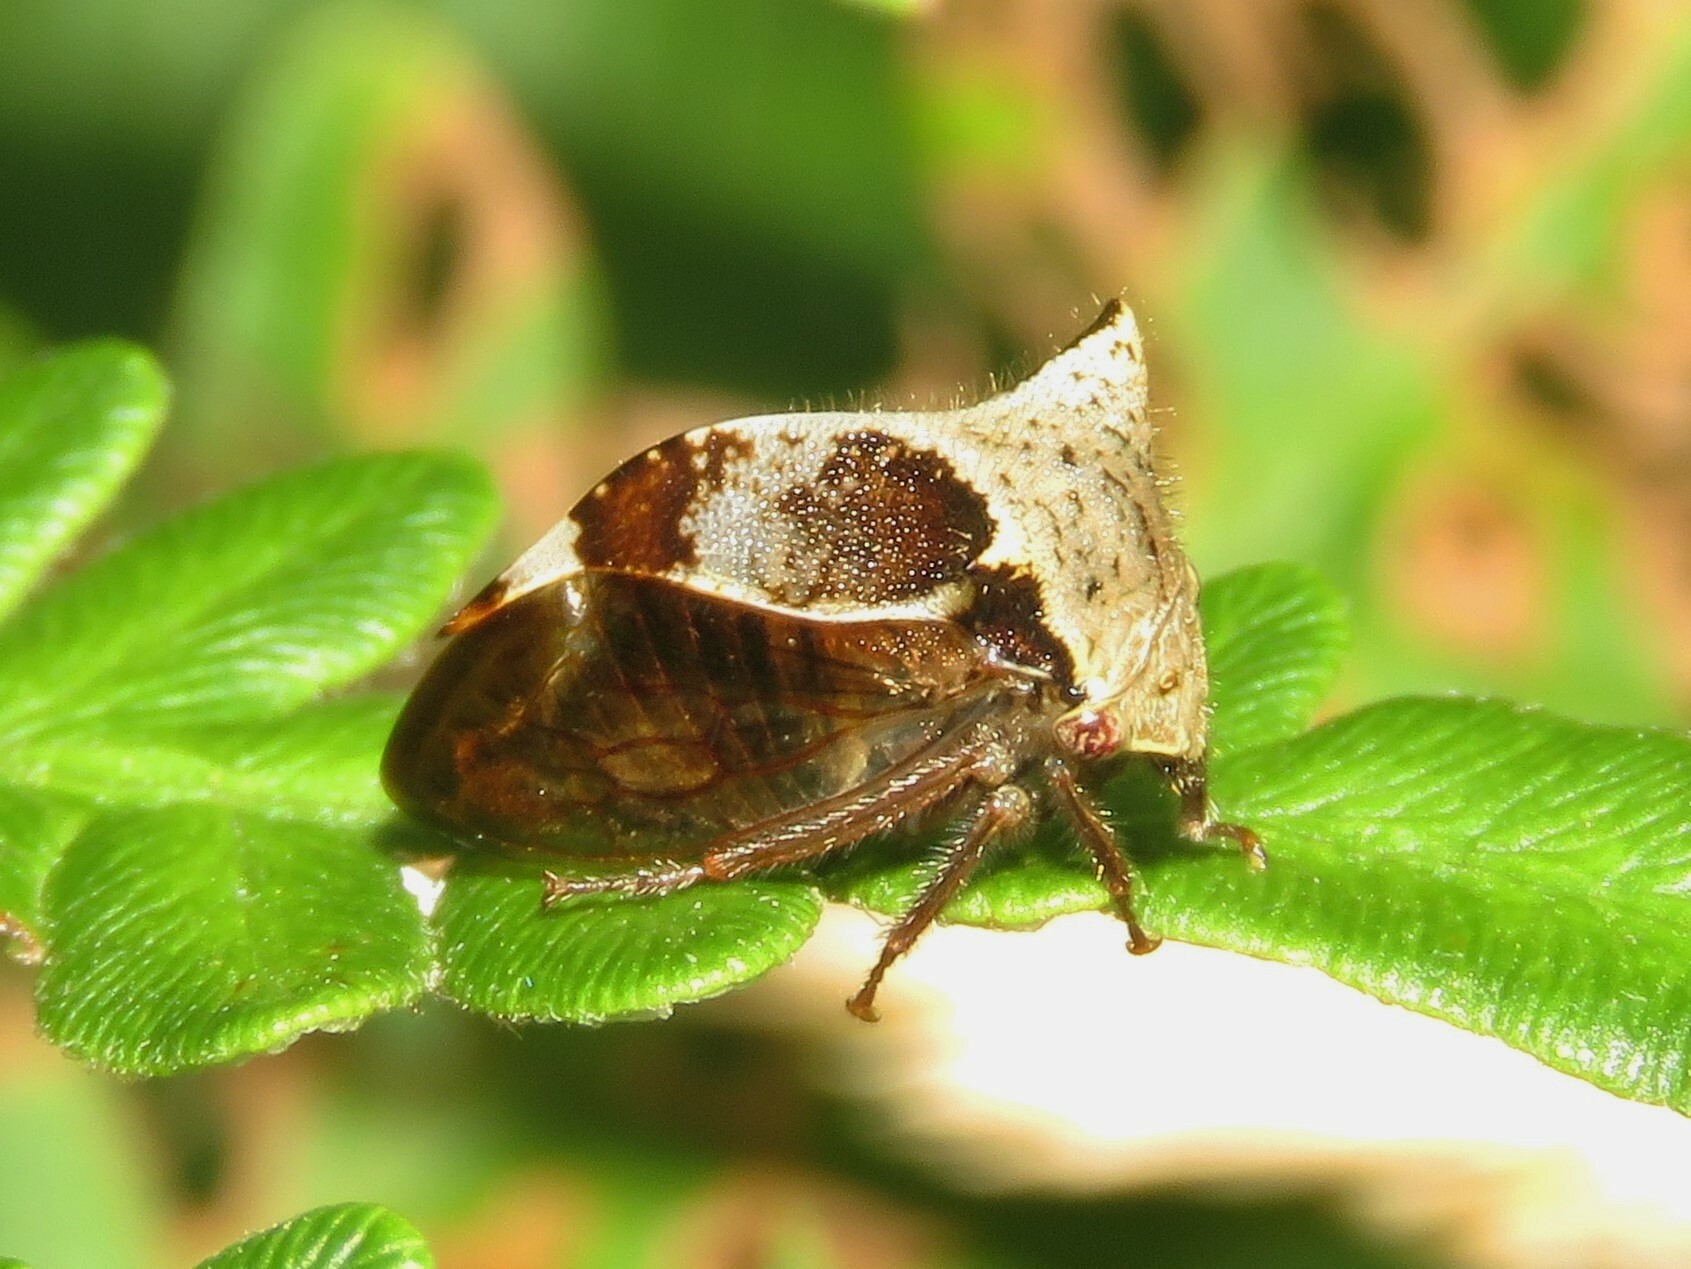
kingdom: Animalia
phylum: Arthropoda
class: Insecta
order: Hemiptera
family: Membracidae
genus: Stictocephala
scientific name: Stictocephala diceros
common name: Two-horned treehopper
